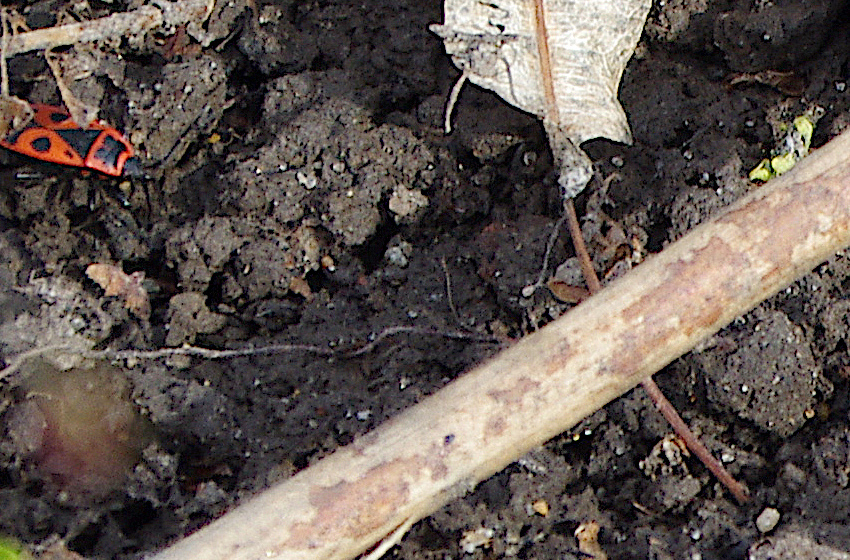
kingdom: Animalia
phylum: Arthropoda
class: Insecta
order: Hemiptera
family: Pyrrhocoridae
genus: Pyrrhocoris
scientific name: Pyrrhocoris apterus
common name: Firebug
